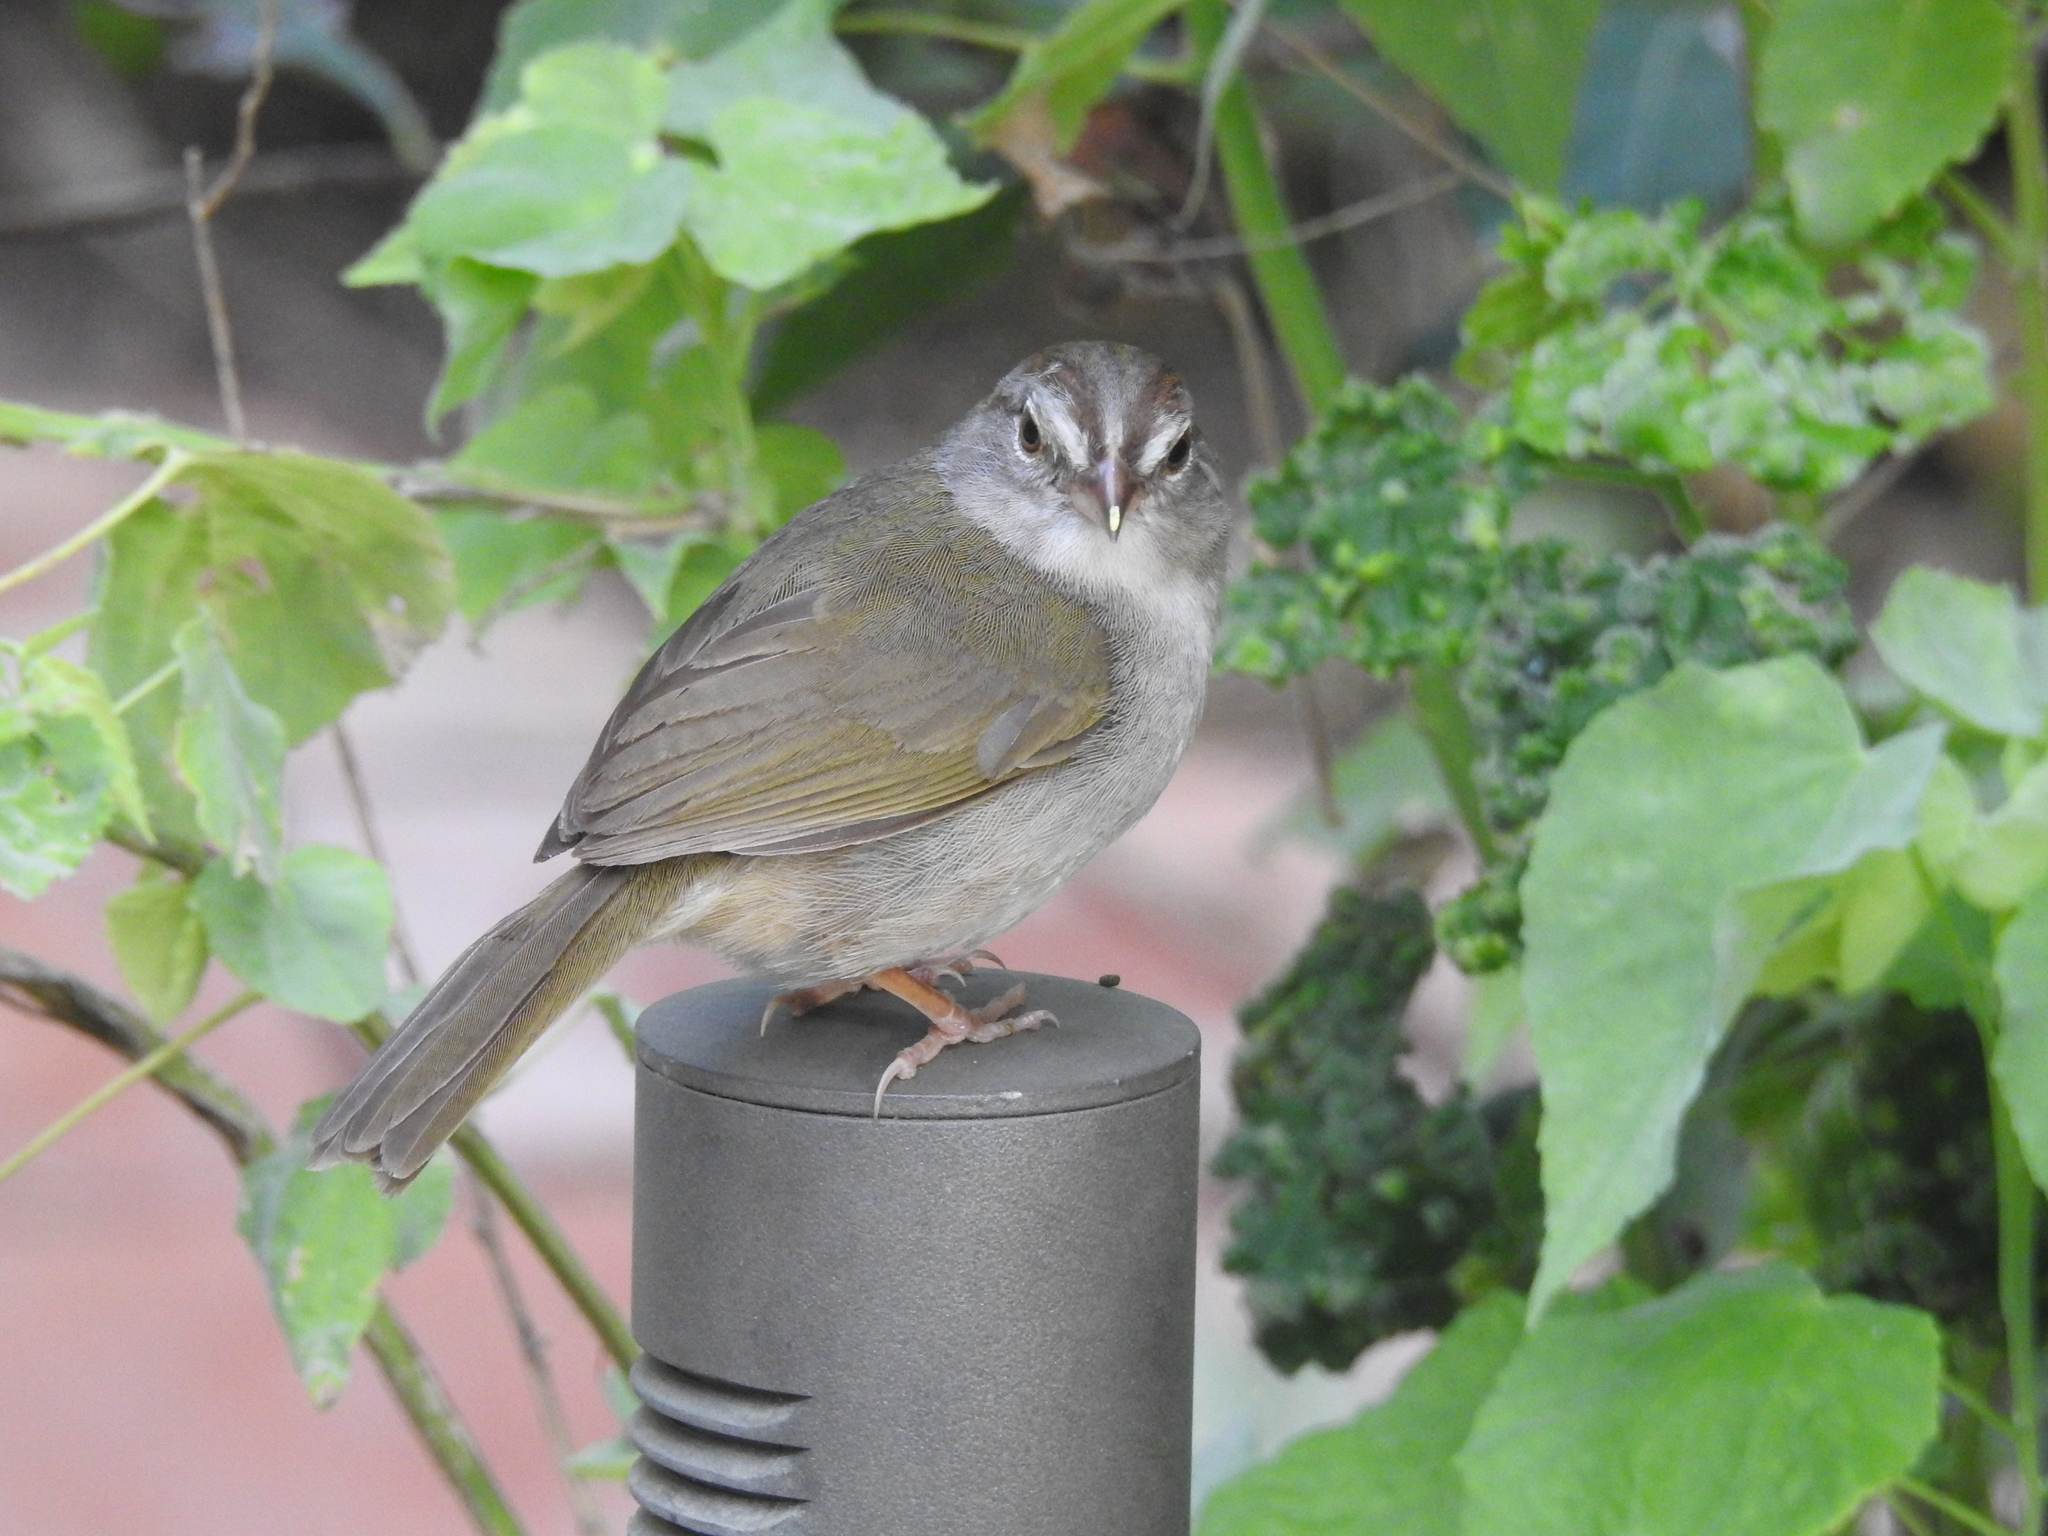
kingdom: Animalia
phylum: Chordata
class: Aves
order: Passeriformes
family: Passerellidae
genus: Arremonops
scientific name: Arremonops rufivirgatus
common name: Olive sparrow
